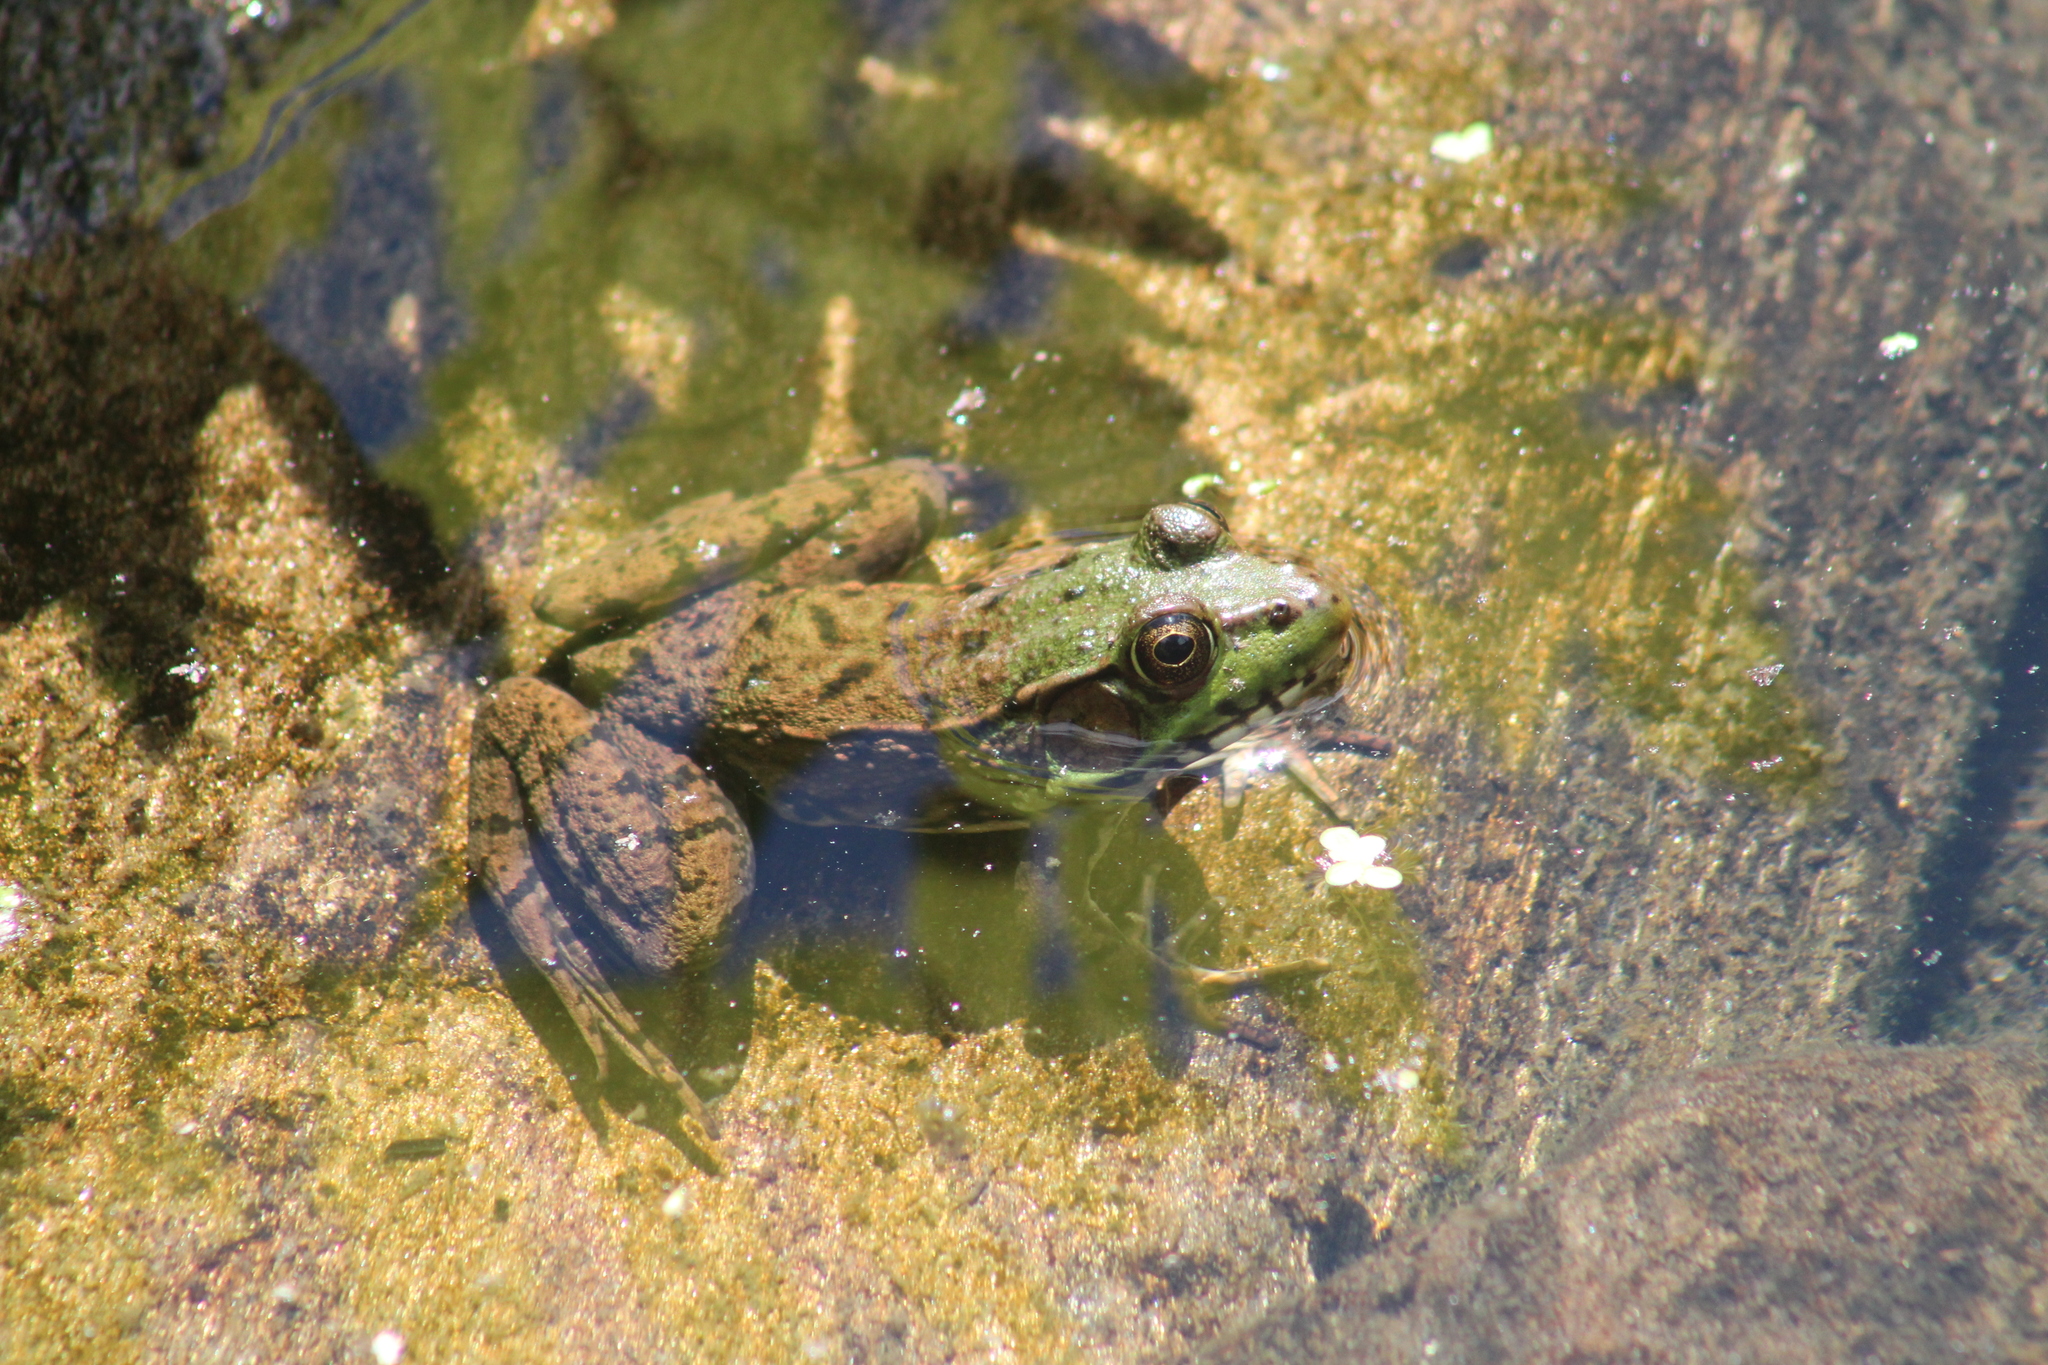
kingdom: Animalia
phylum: Chordata
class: Amphibia
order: Anura
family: Ranidae
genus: Lithobates
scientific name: Lithobates clamitans
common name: Green frog
